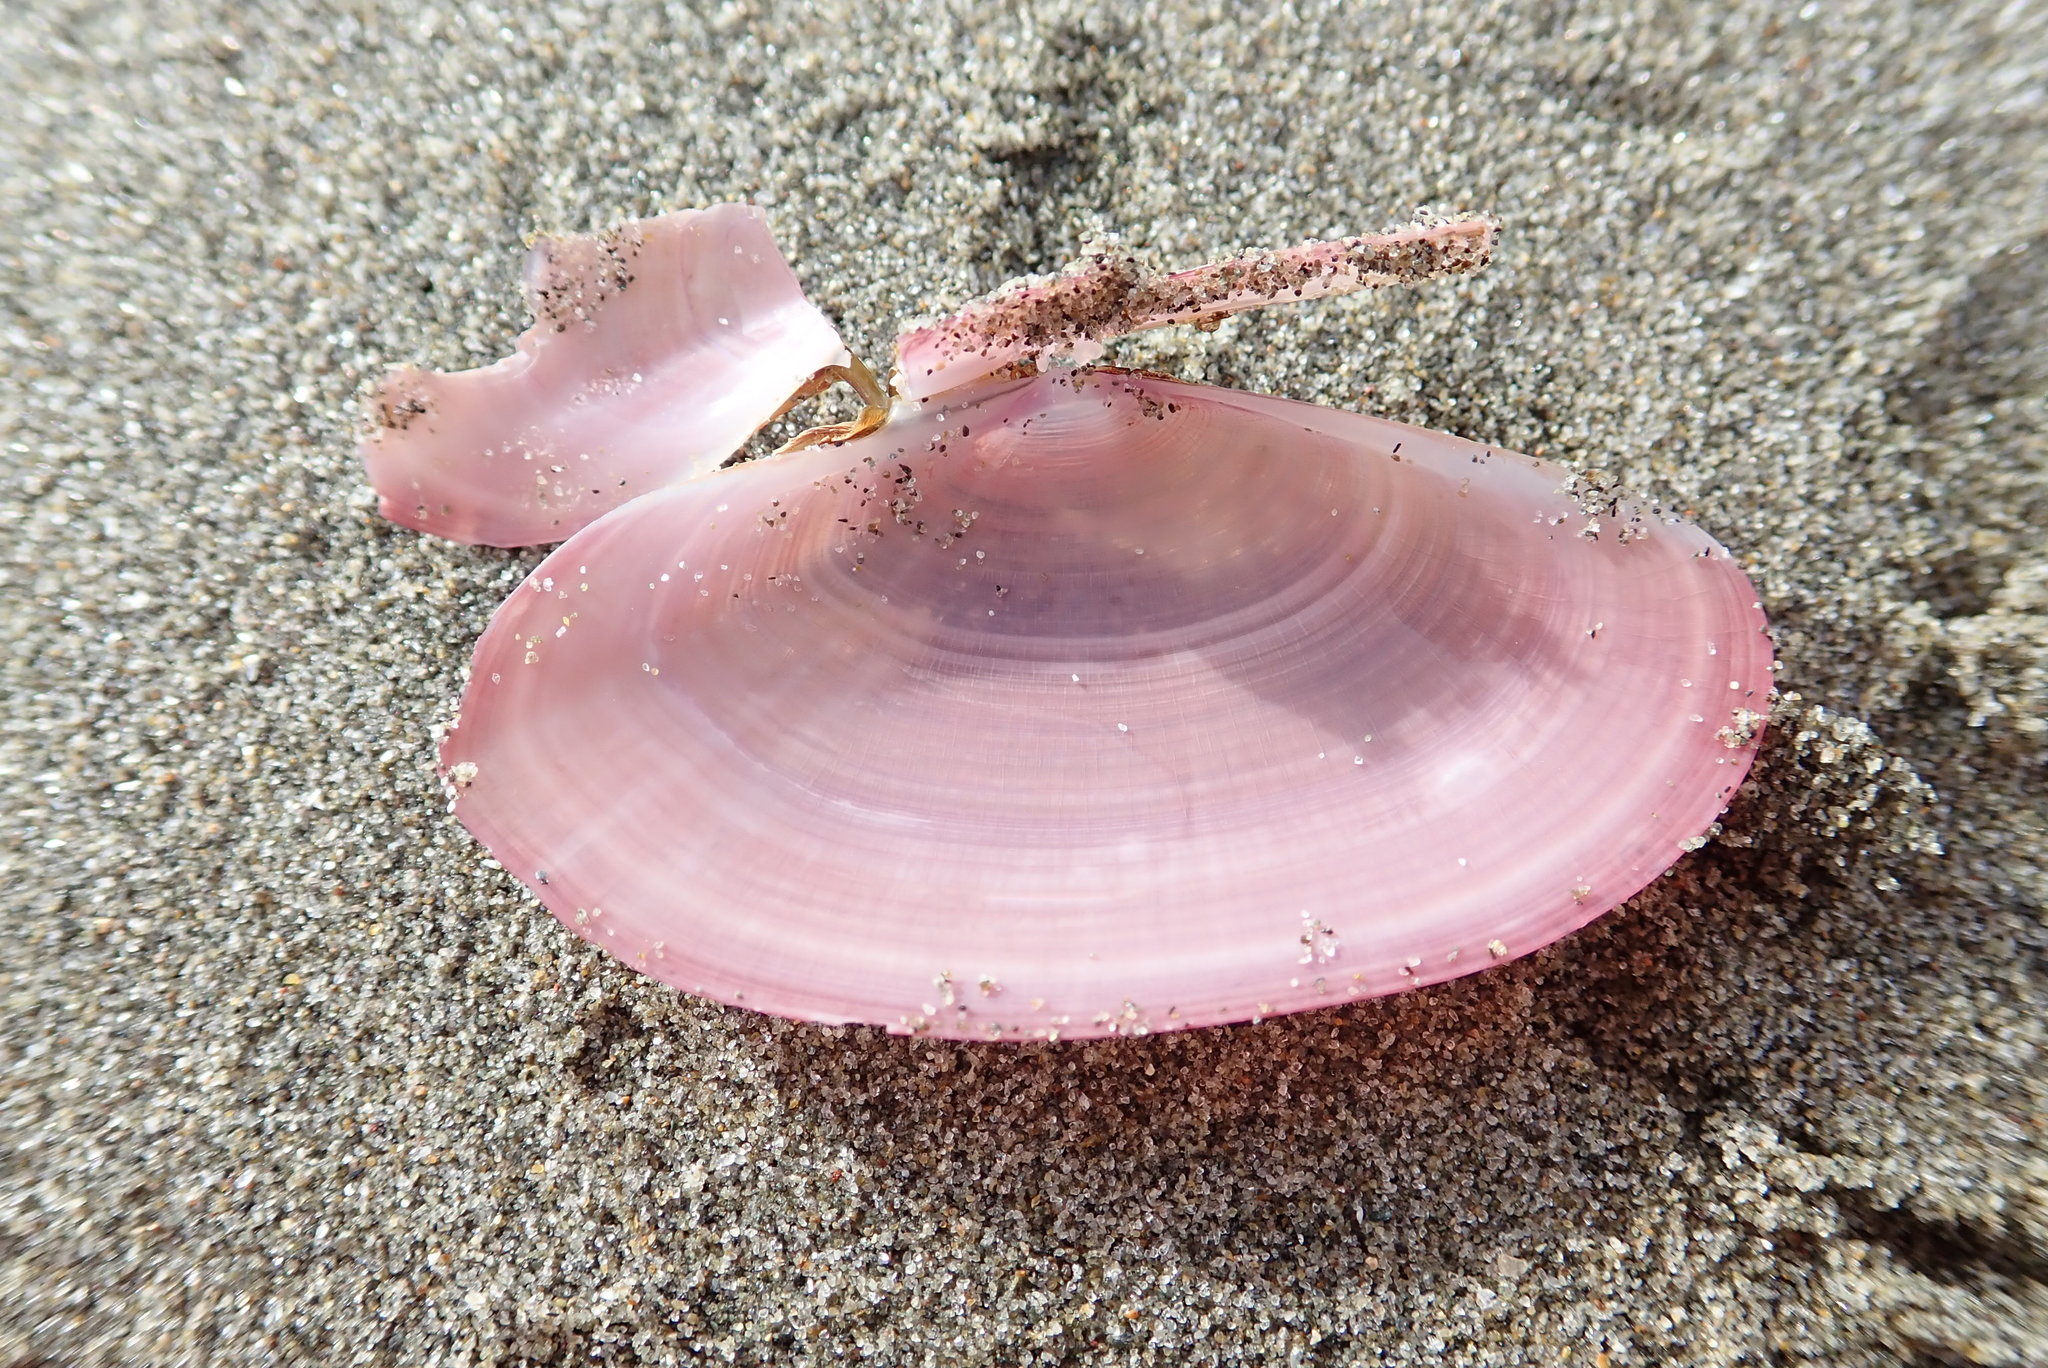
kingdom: Animalia
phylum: Mollusca
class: Bivalvia
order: Cardiida
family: Psammobiidae
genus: Gari
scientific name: Gari lineolata
